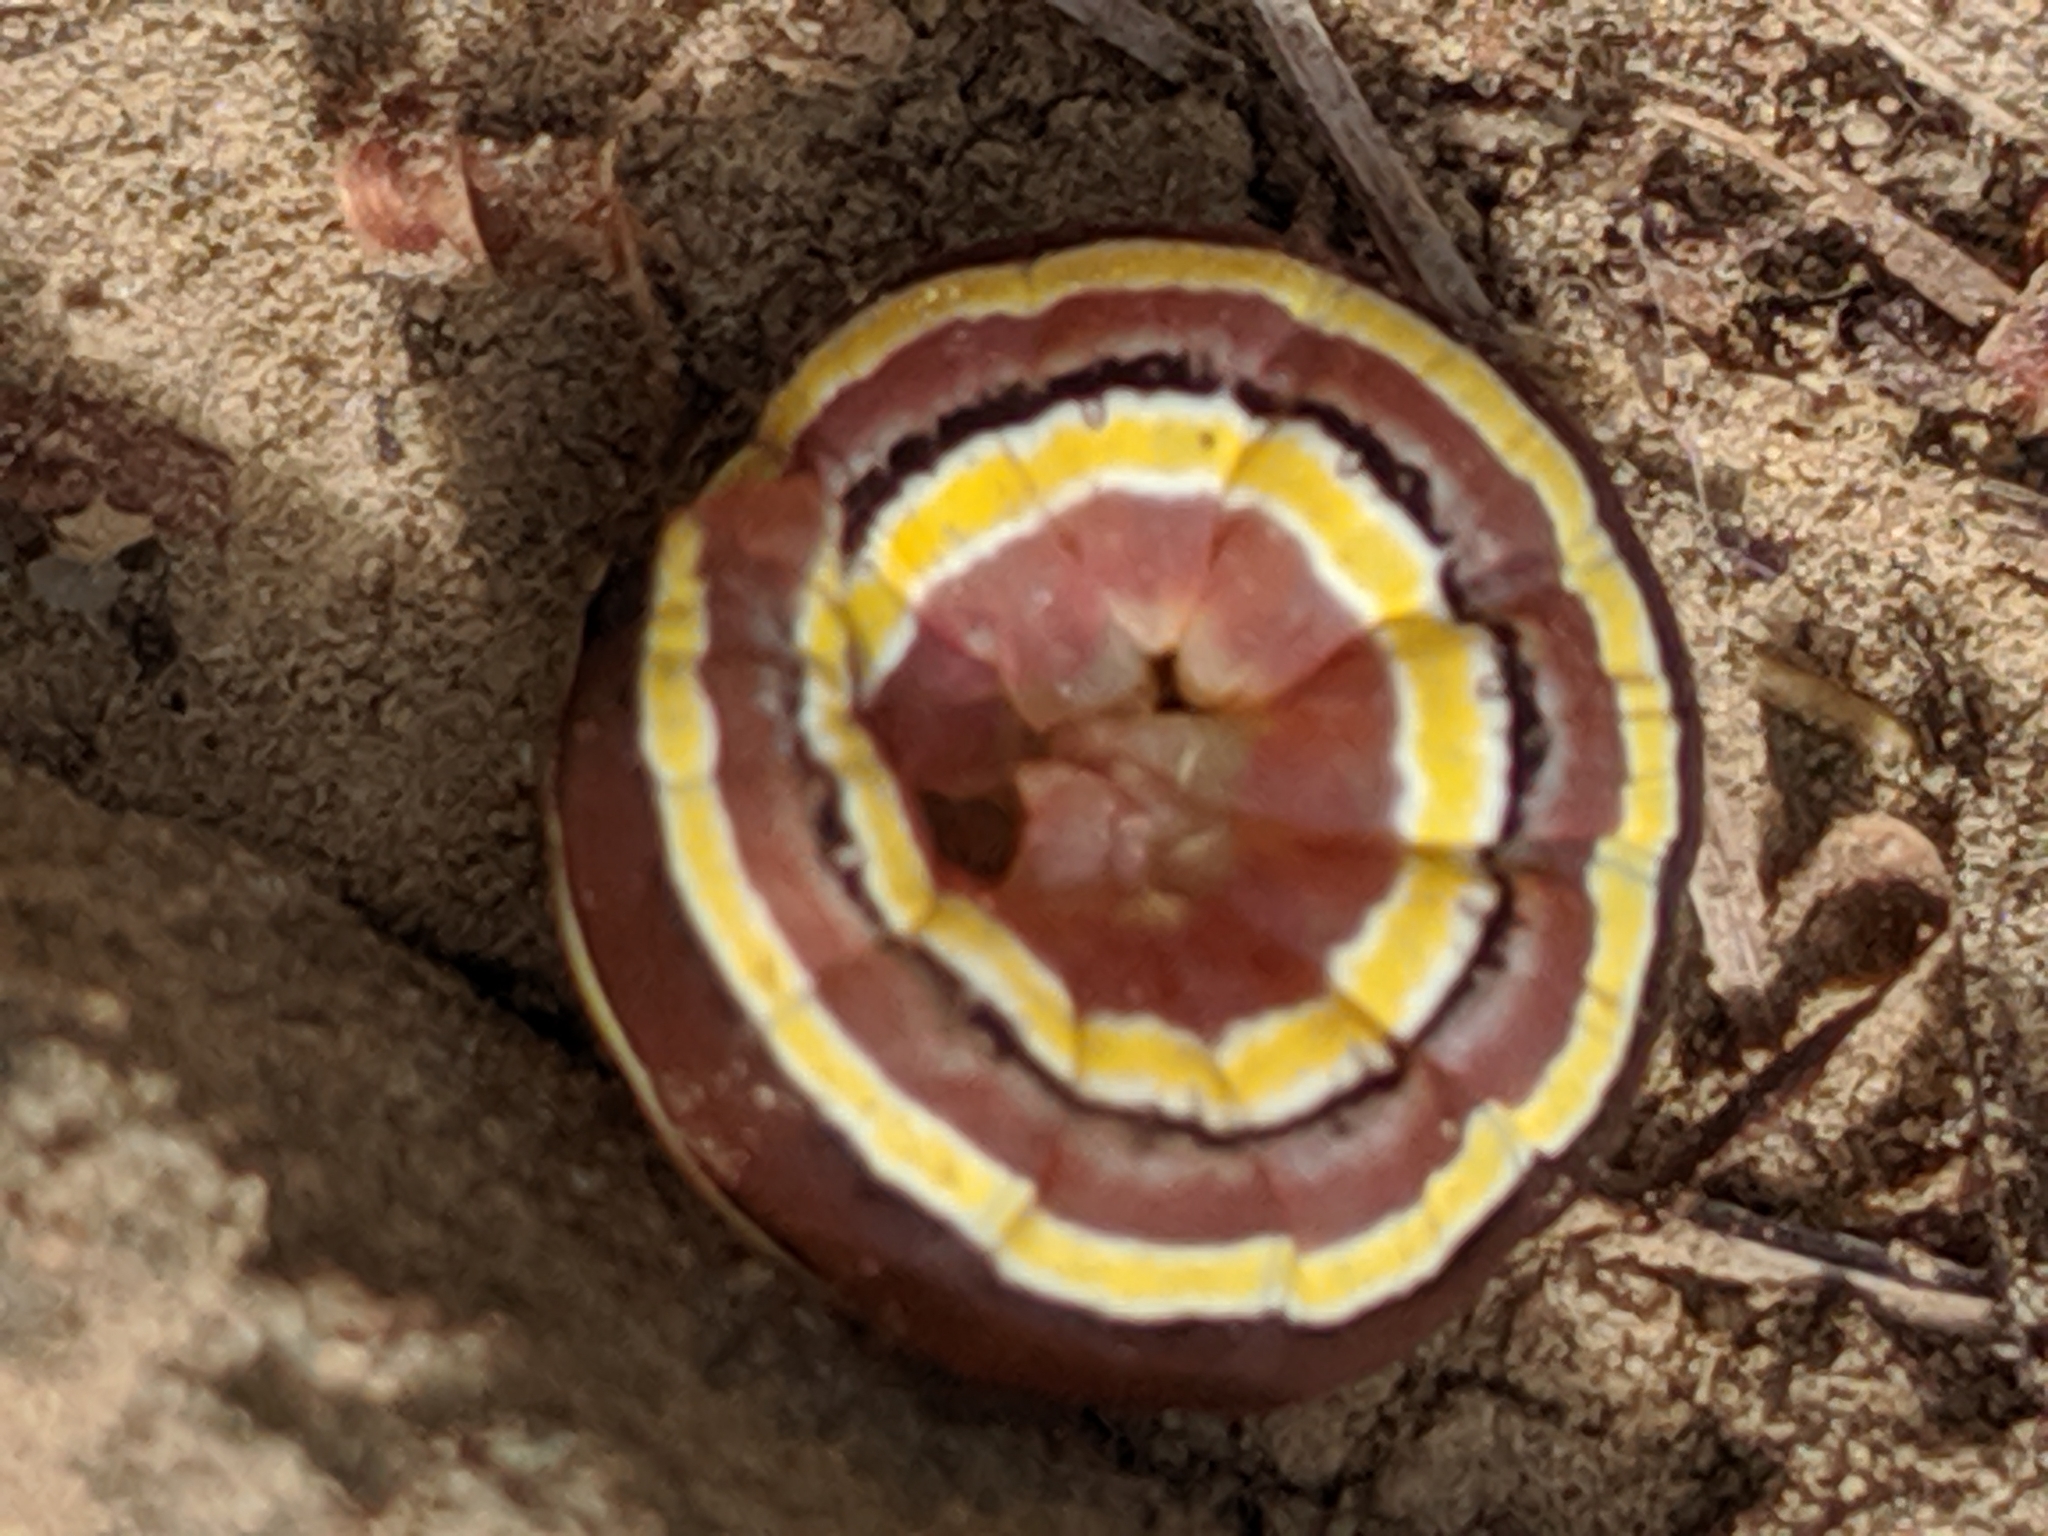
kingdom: Animalia
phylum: Arthropoda
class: Insecta
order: Lepidoptera
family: Noctuidae
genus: Trichordestra
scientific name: Trichordestra legitima
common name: Striped garden caterpillar
